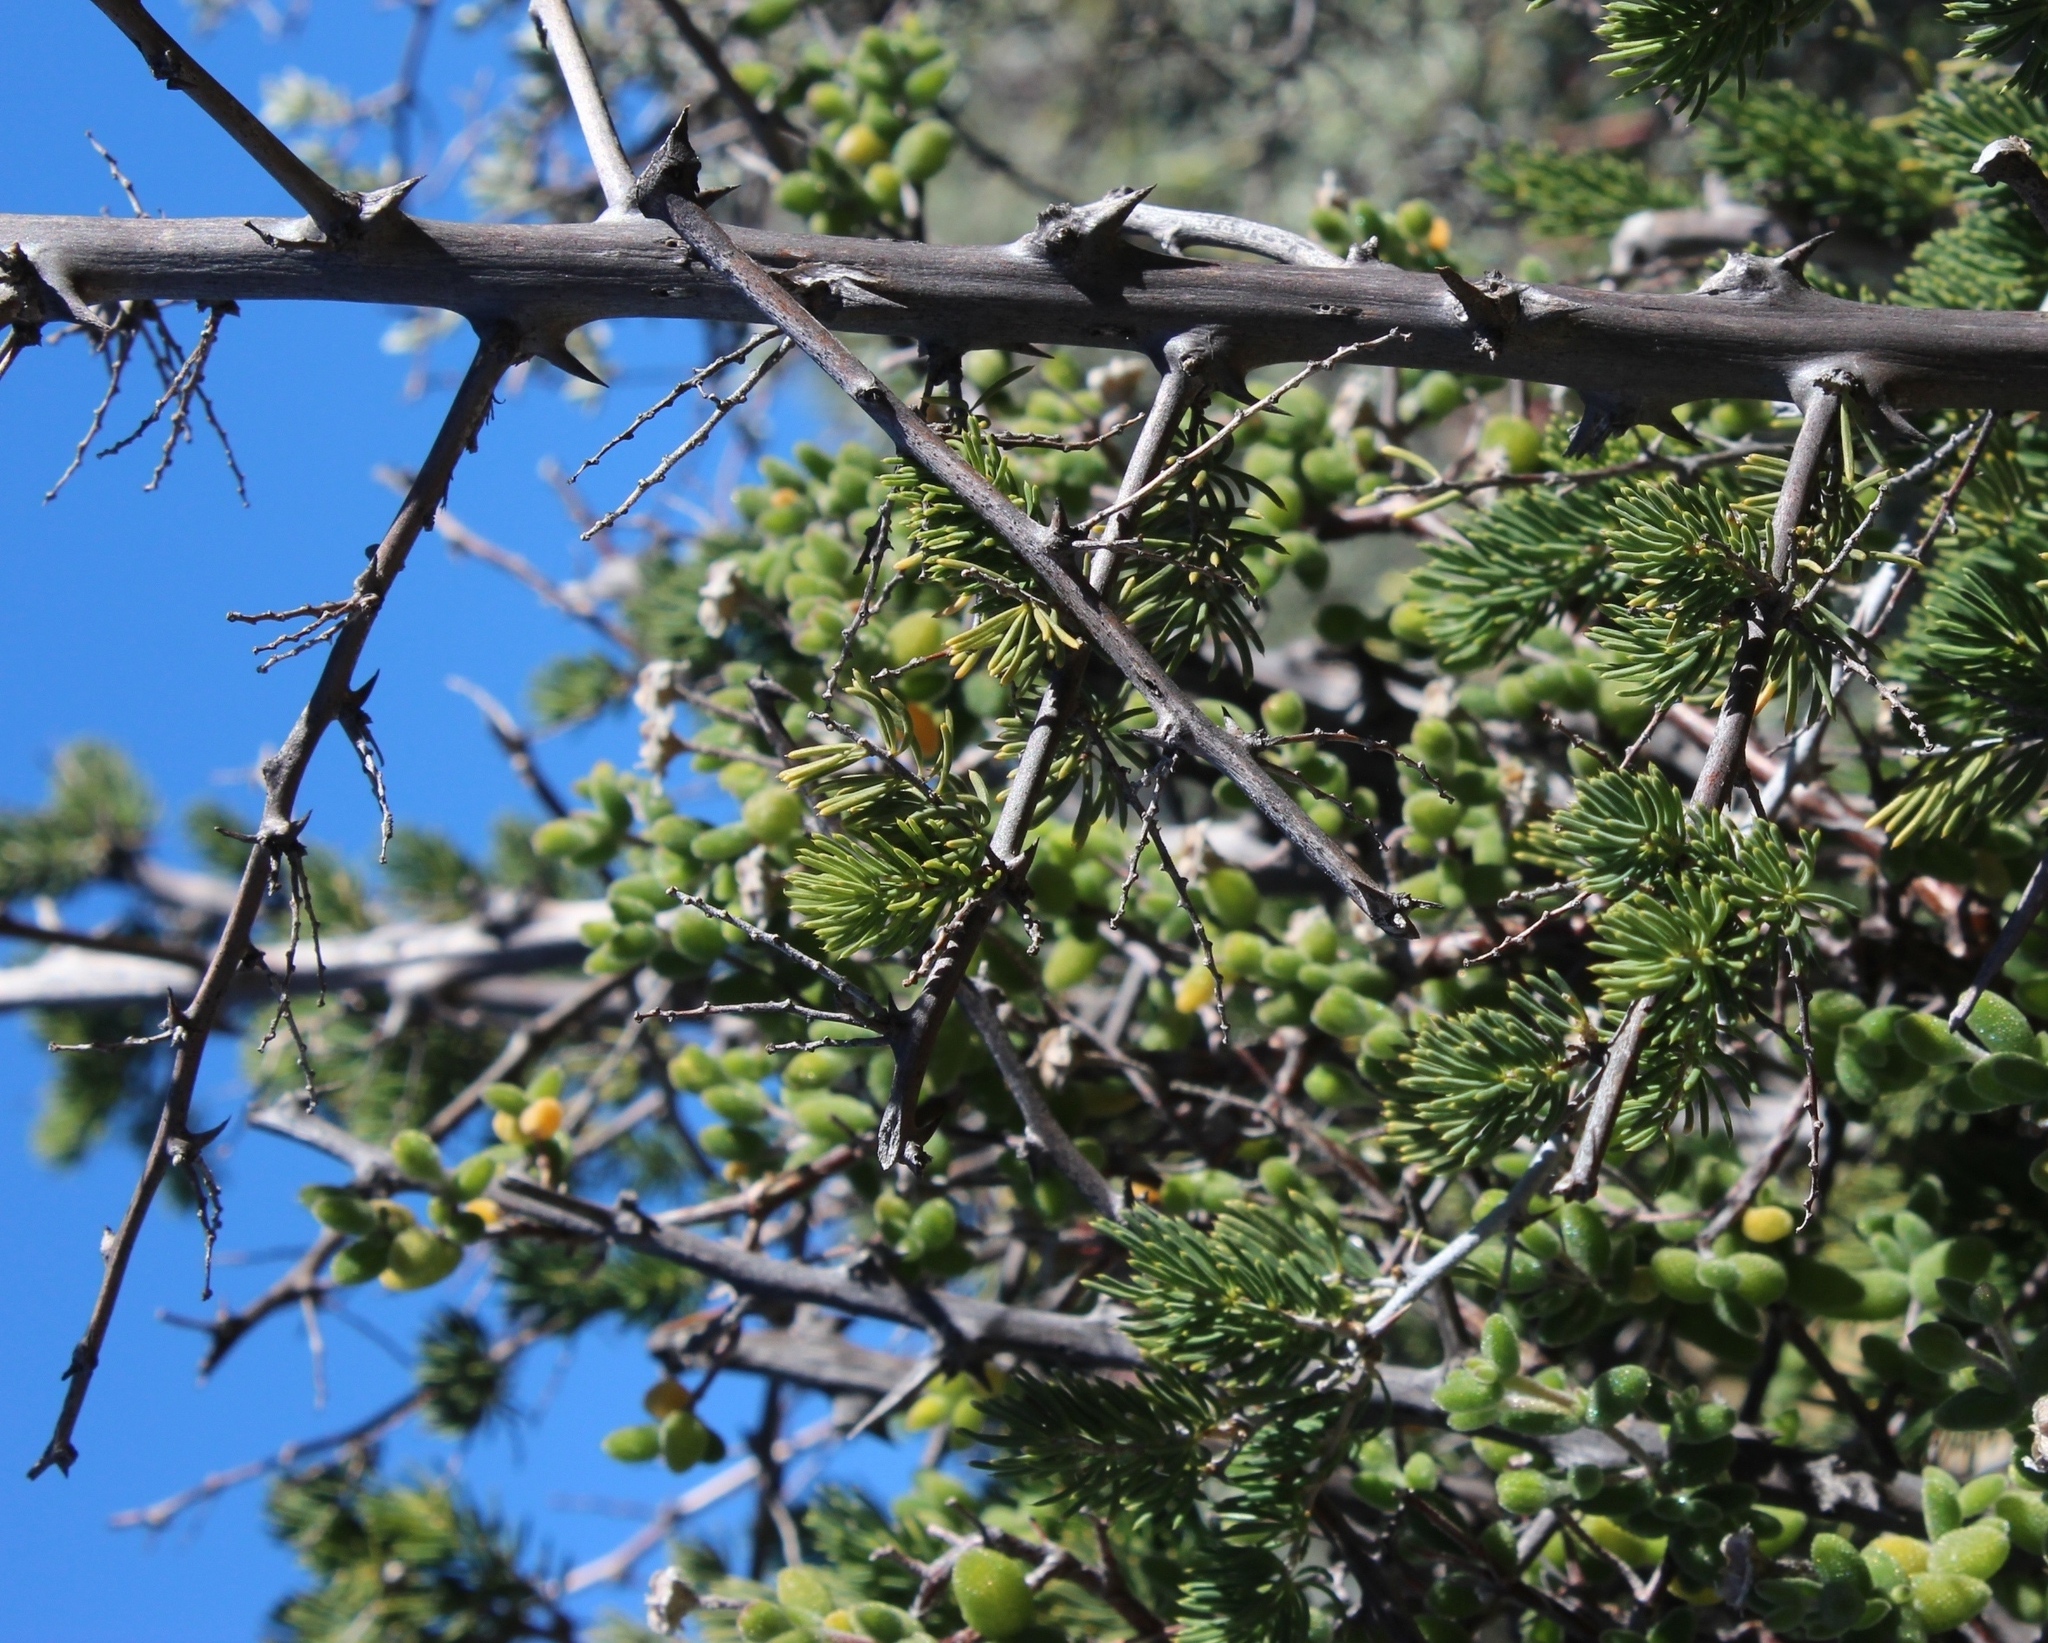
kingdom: Plantae
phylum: Tracheophyta
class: Liliopsida
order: Asparagales
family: Asparagaceae
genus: Asparagus
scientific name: Asparagus mucronatus
